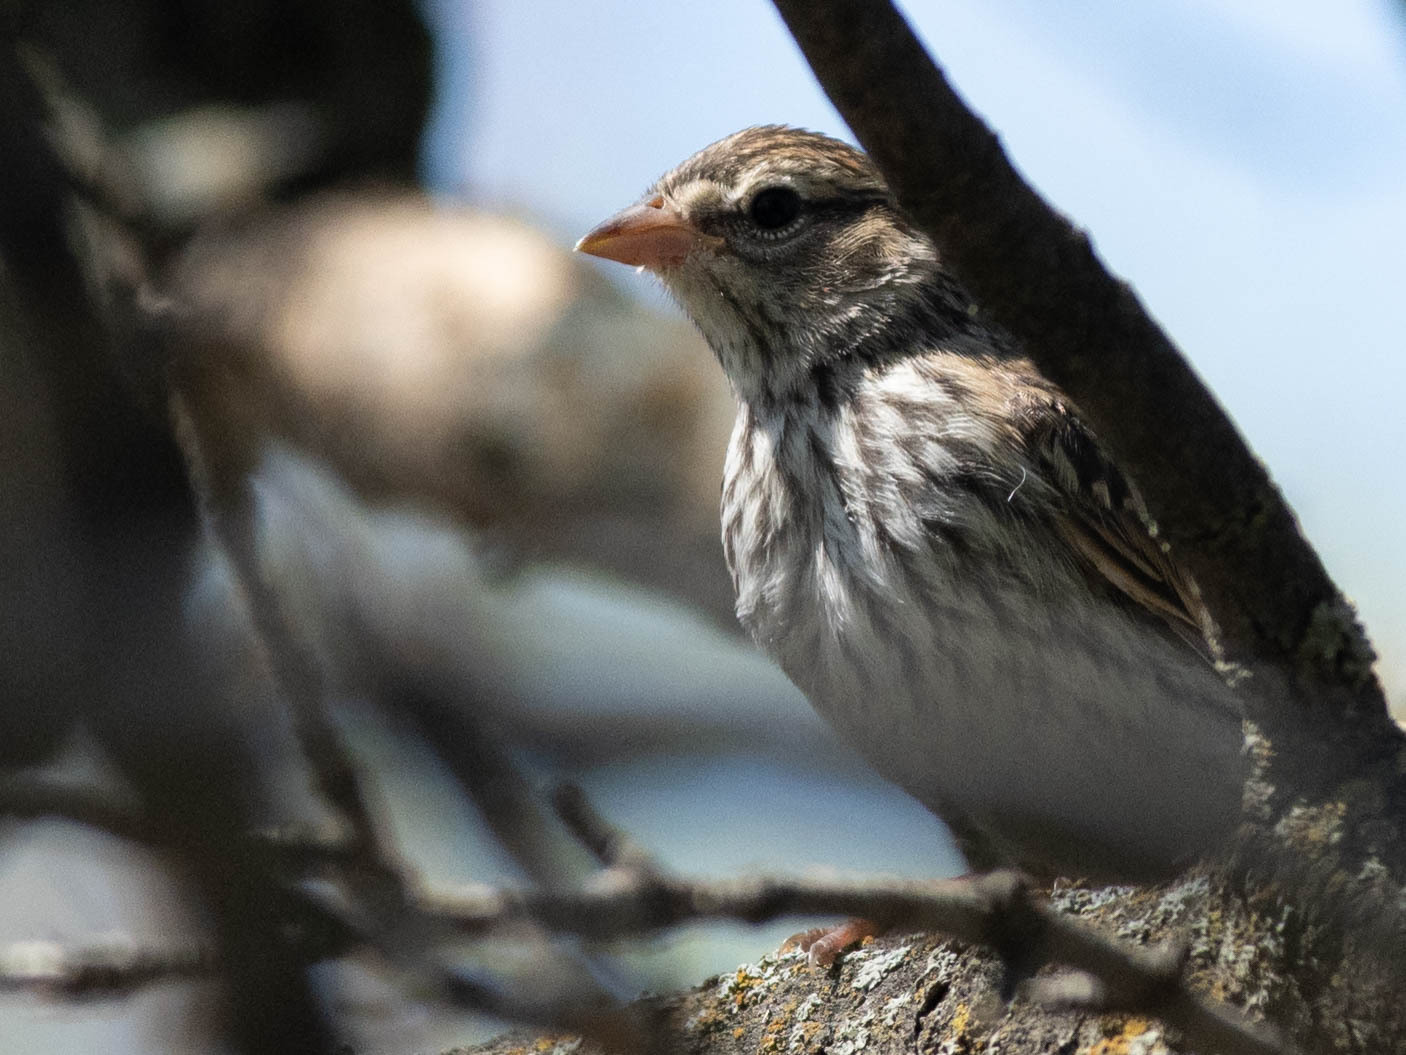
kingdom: Animalia
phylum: Chordata
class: Aves
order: Passeriformes
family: Passerellidae
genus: Spizella
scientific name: Spizella passerina
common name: Chipping sparrow
